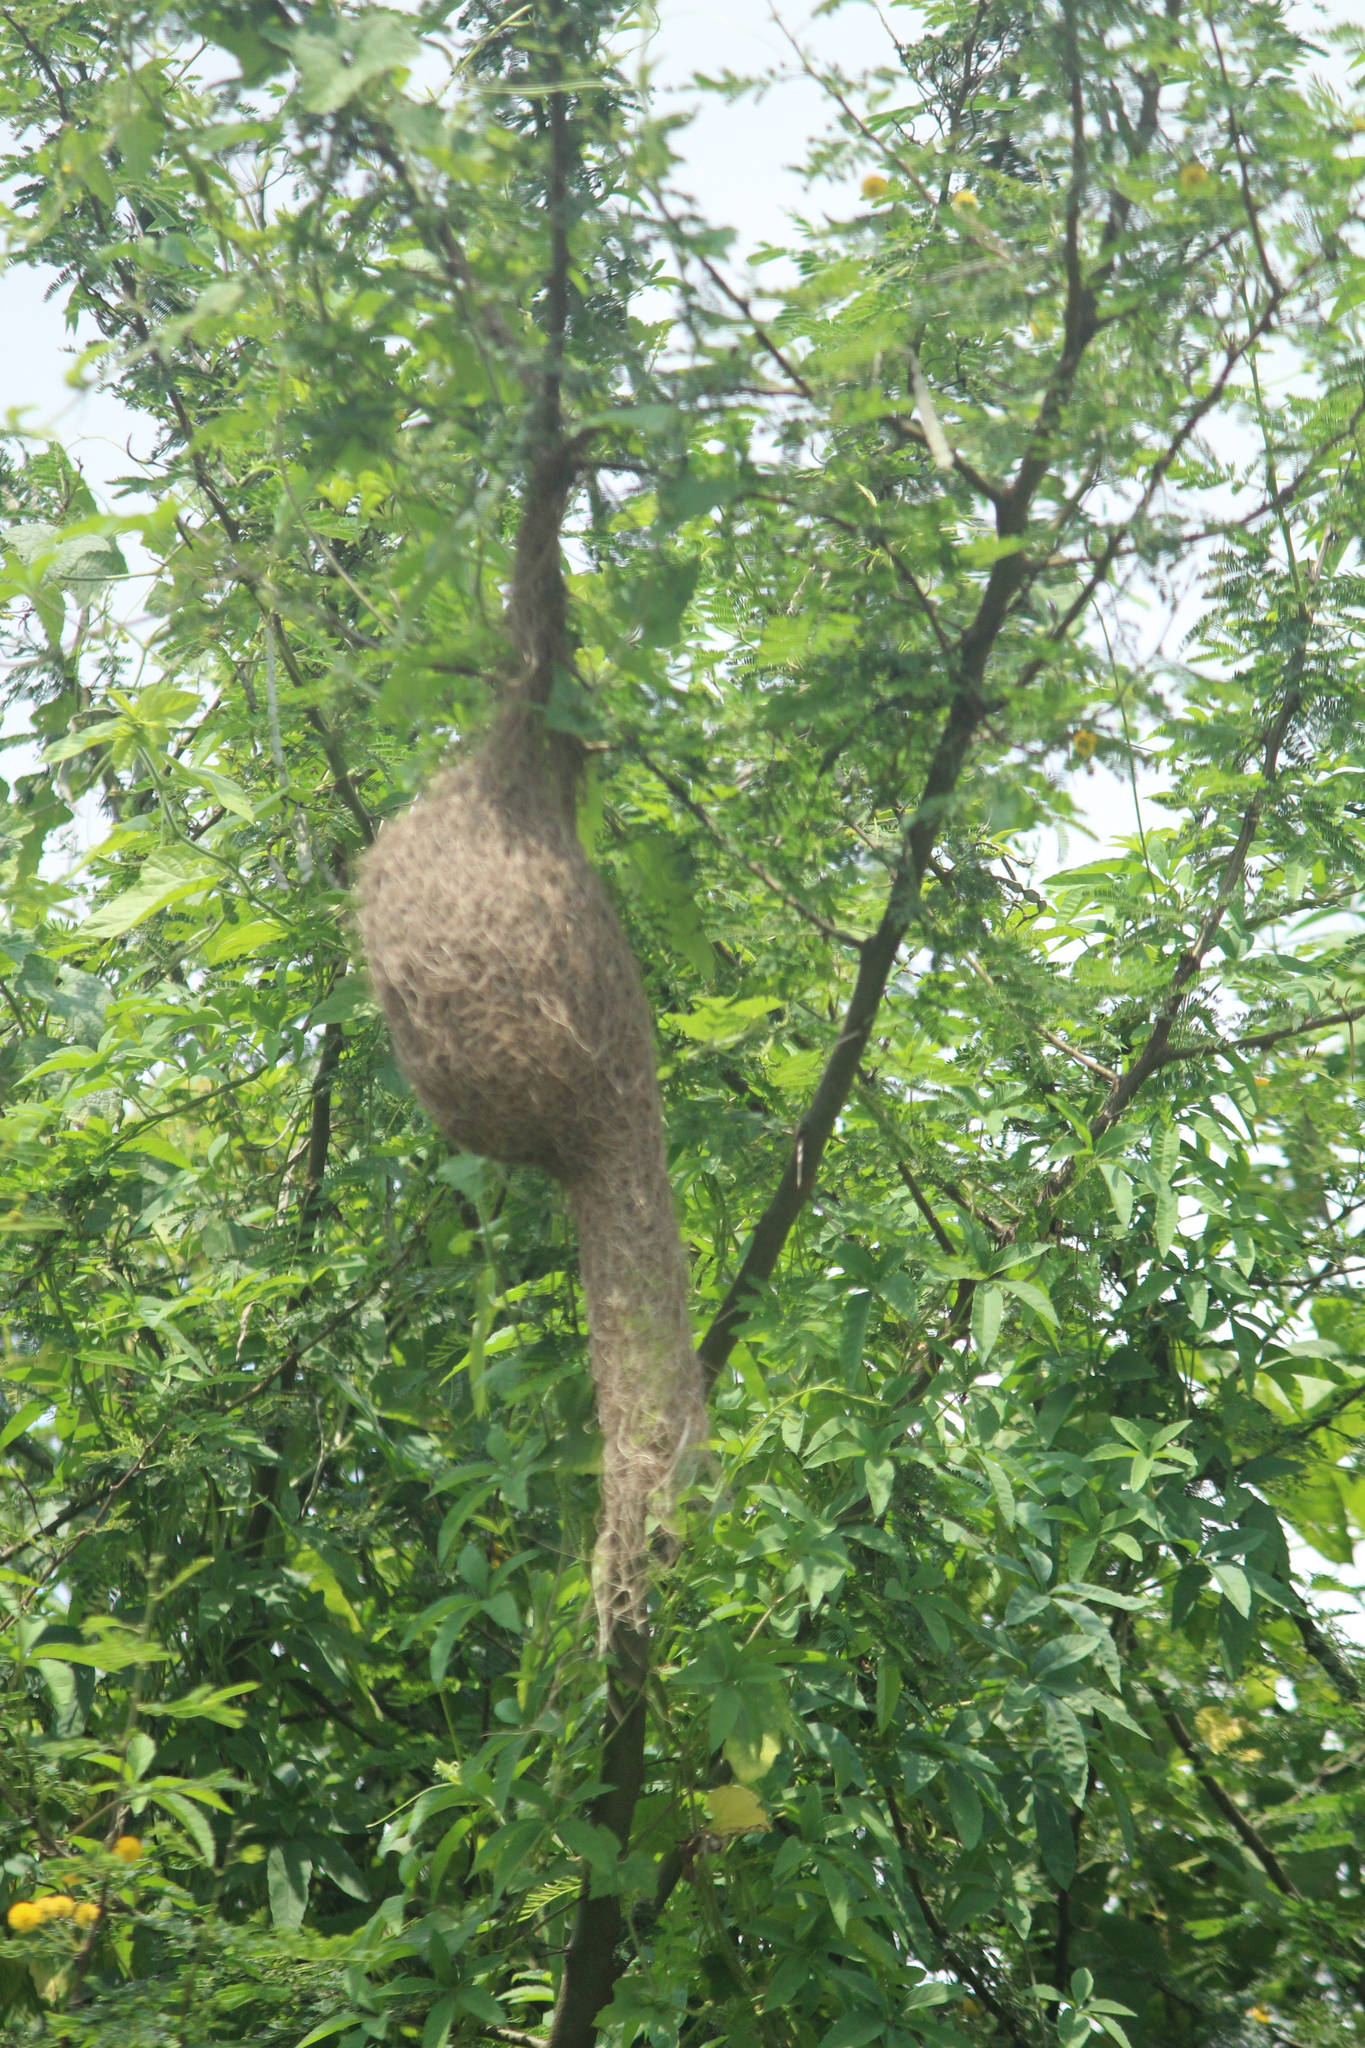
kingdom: Animalia
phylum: Chordata
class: Aves
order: Passeriformes
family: Ploceidae
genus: Ploceus
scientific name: Ploceus philippinus
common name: Baya weaver
